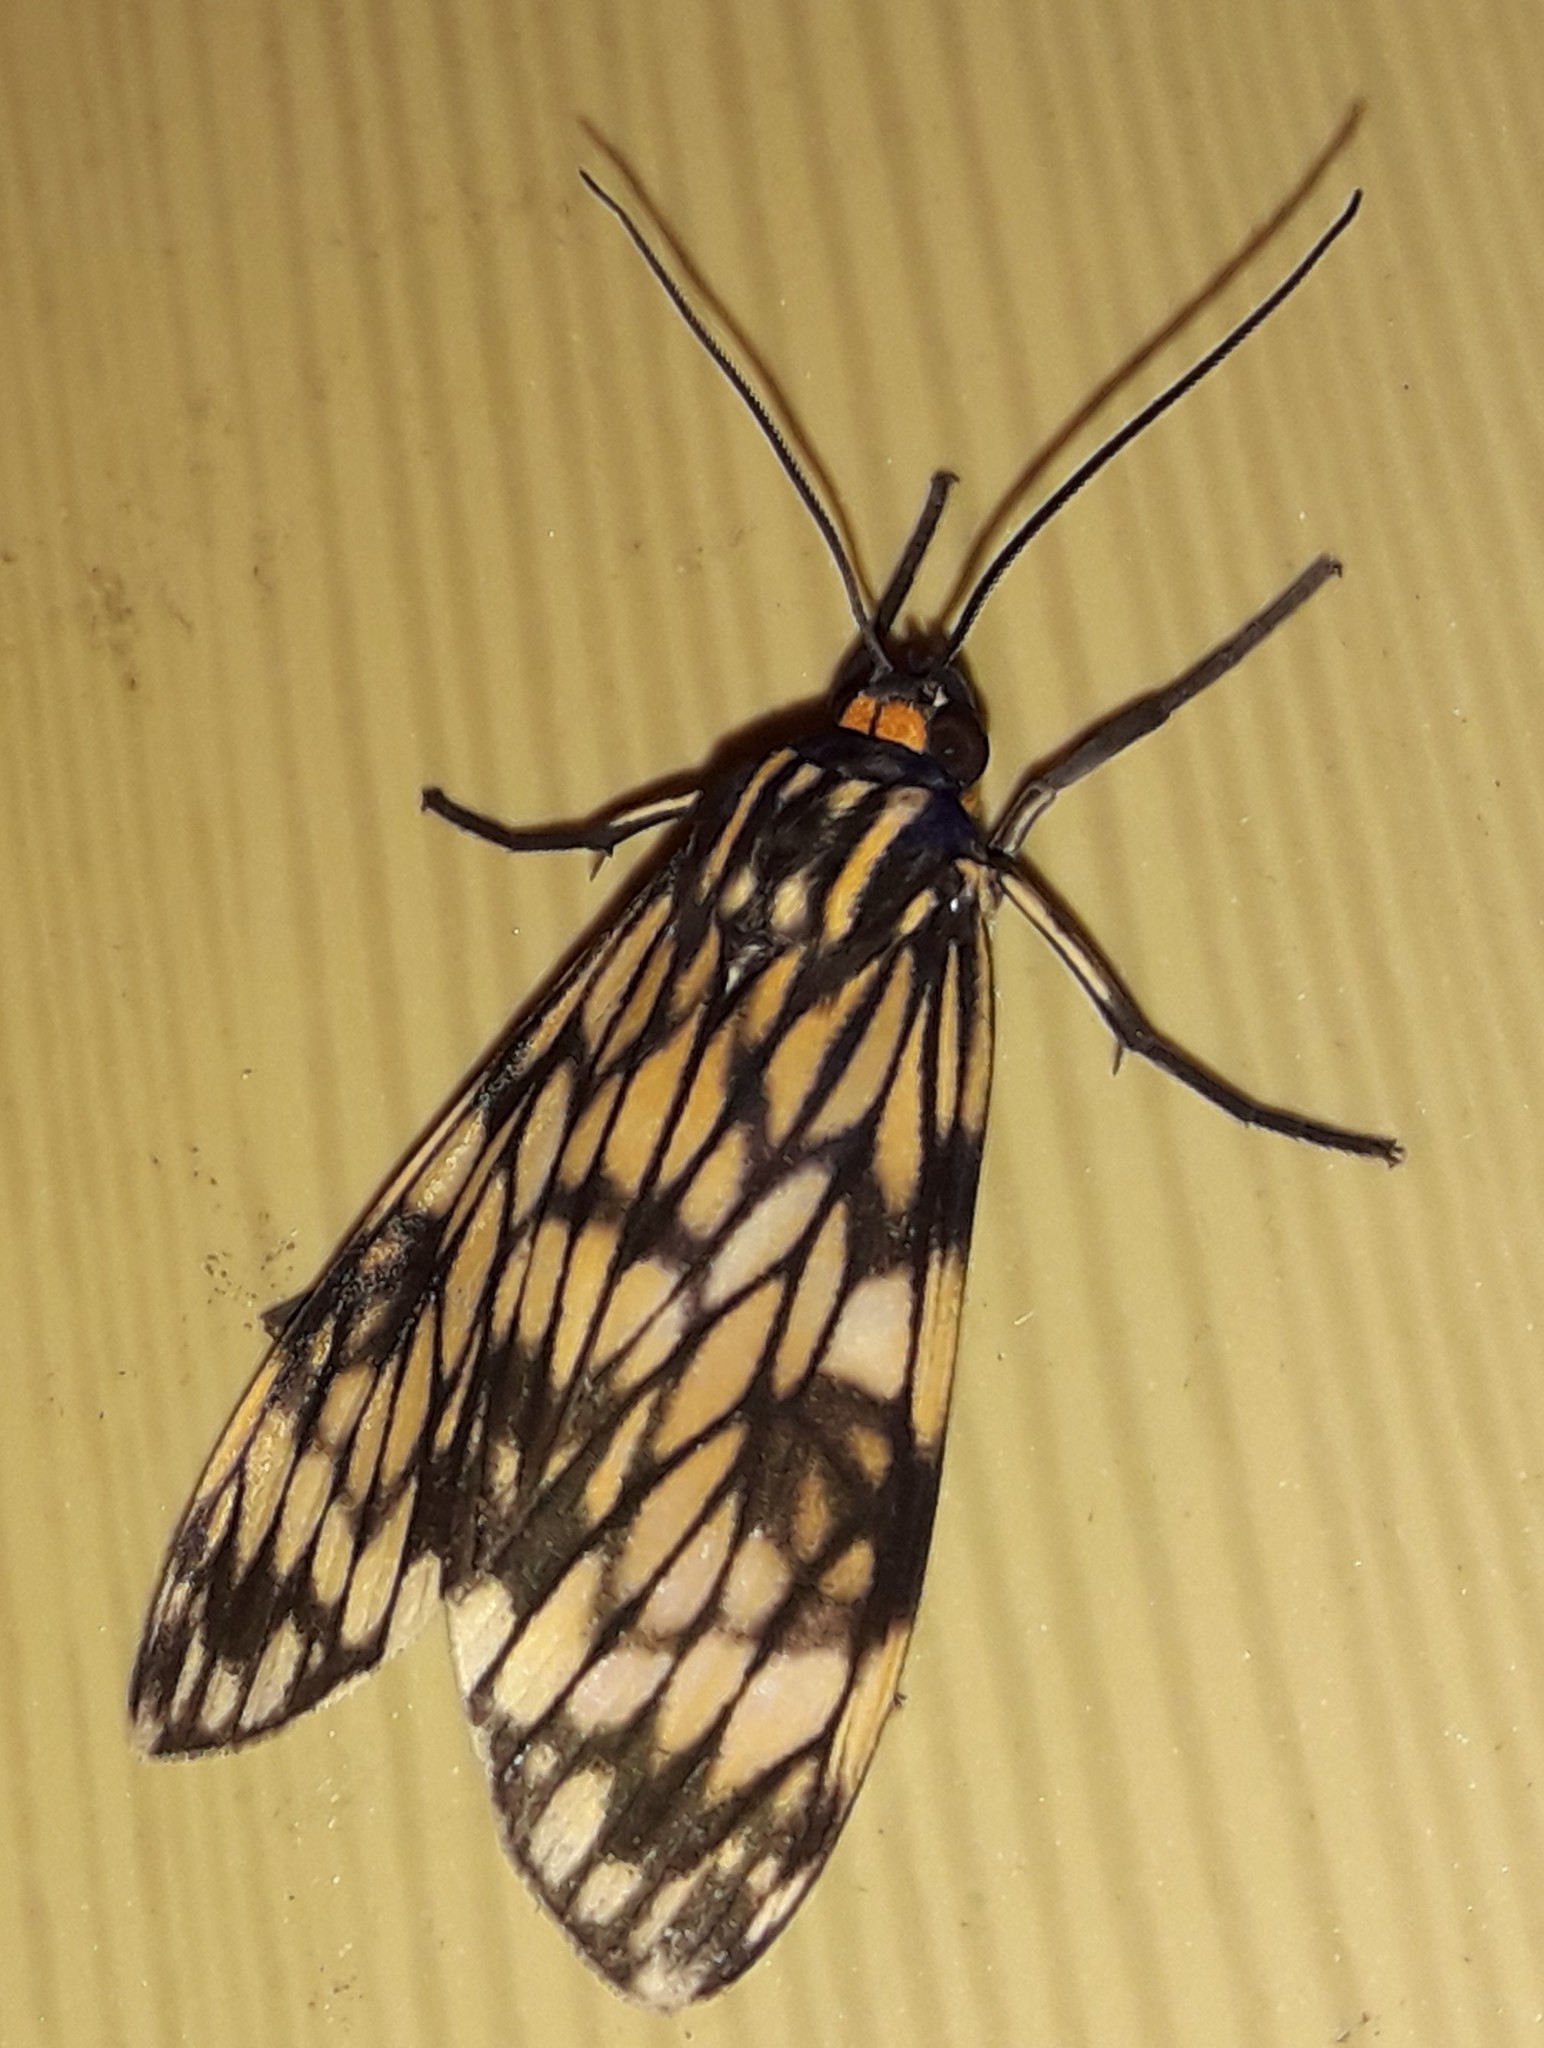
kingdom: Animalia
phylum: Arthropoda
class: Insecta
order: Lepidoptera
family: Erebidae
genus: Theages
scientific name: Theages flavicaput
